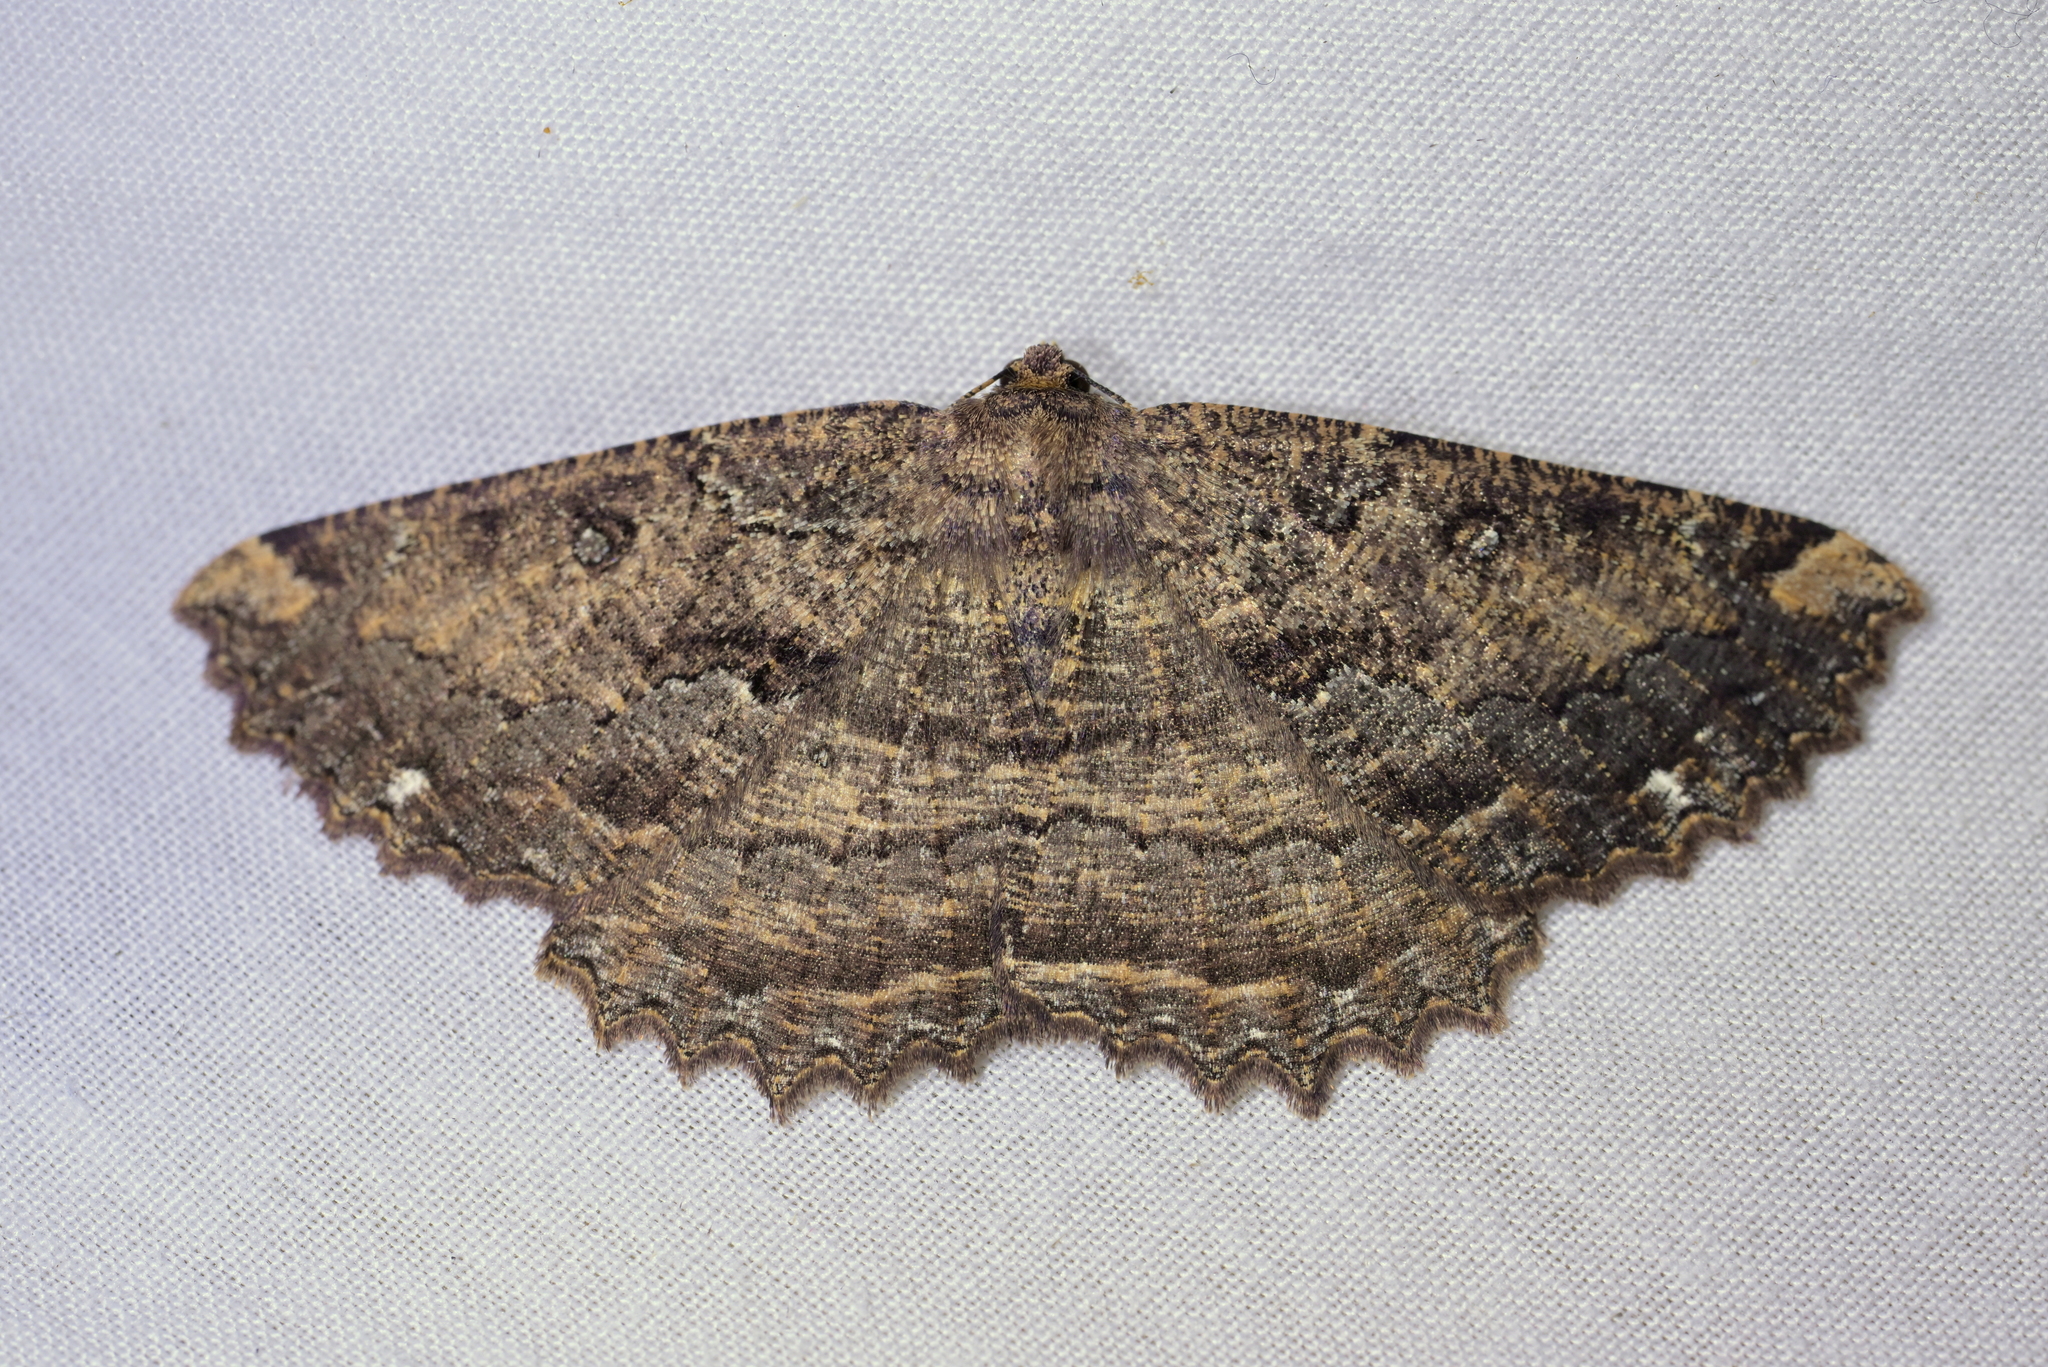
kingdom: Animalia
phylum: Arthropoda
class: Insecta
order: Lepidoptera
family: Geometridae
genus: Gellonia
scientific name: Gellonia dejectaria
